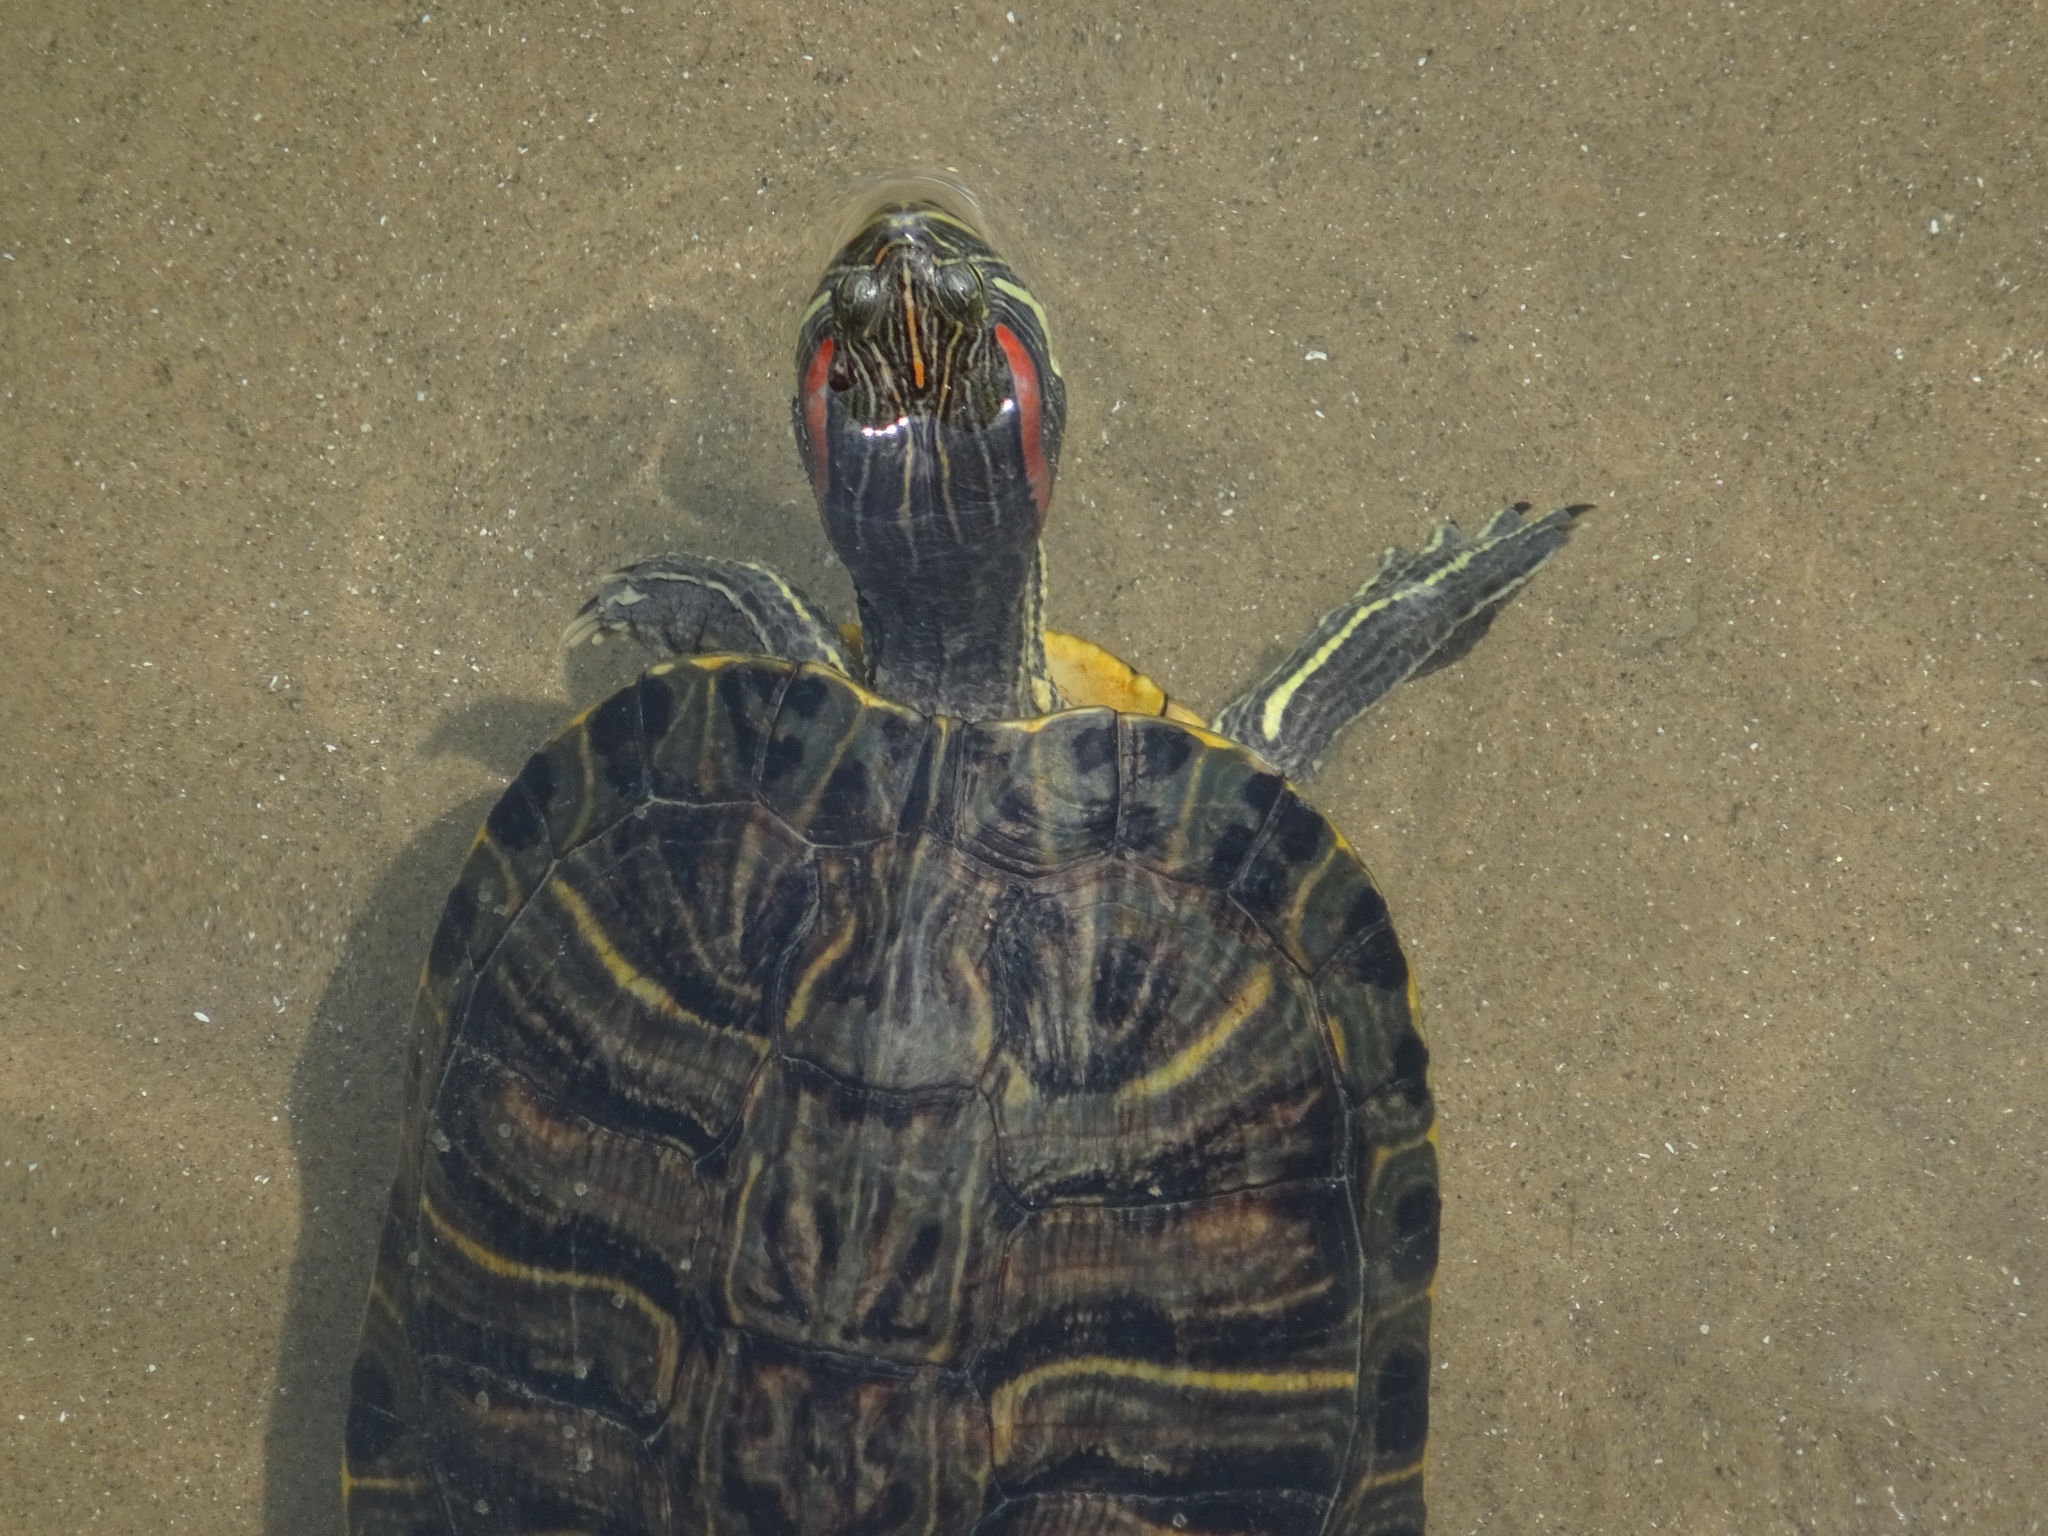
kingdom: Animalia
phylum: Chordata
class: Testudines
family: Emydidae
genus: Trachemys
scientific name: Trachemys scripta
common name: Slider
